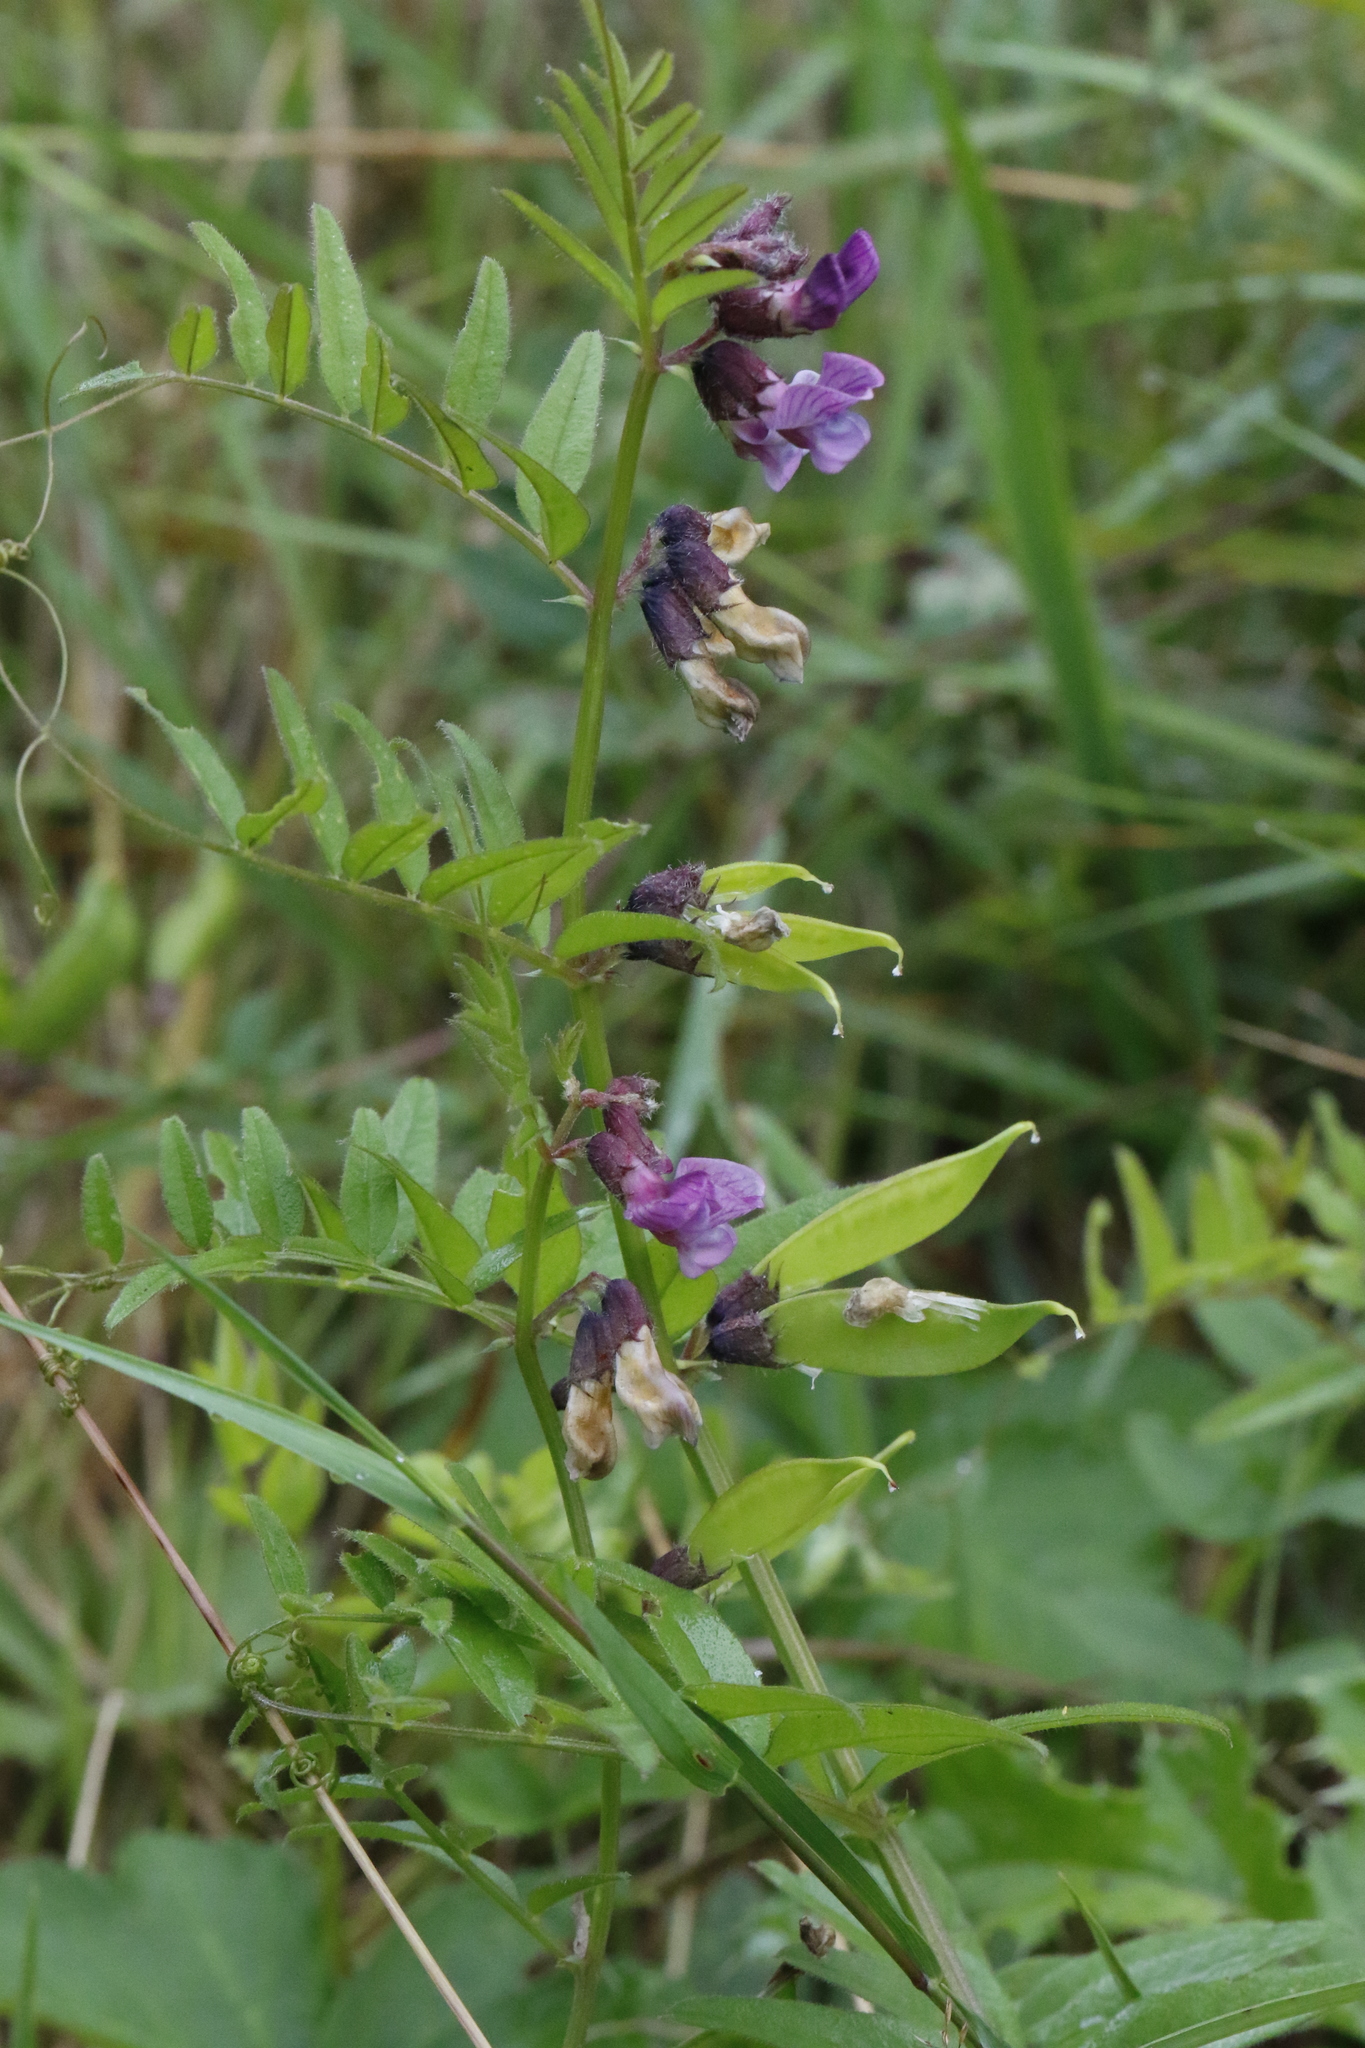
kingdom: Plantae
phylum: Tracheophyta
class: Magnoliopsida
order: Fabales
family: Fabaceae
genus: Vicia
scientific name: Vicia sepium
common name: Bush vetch
